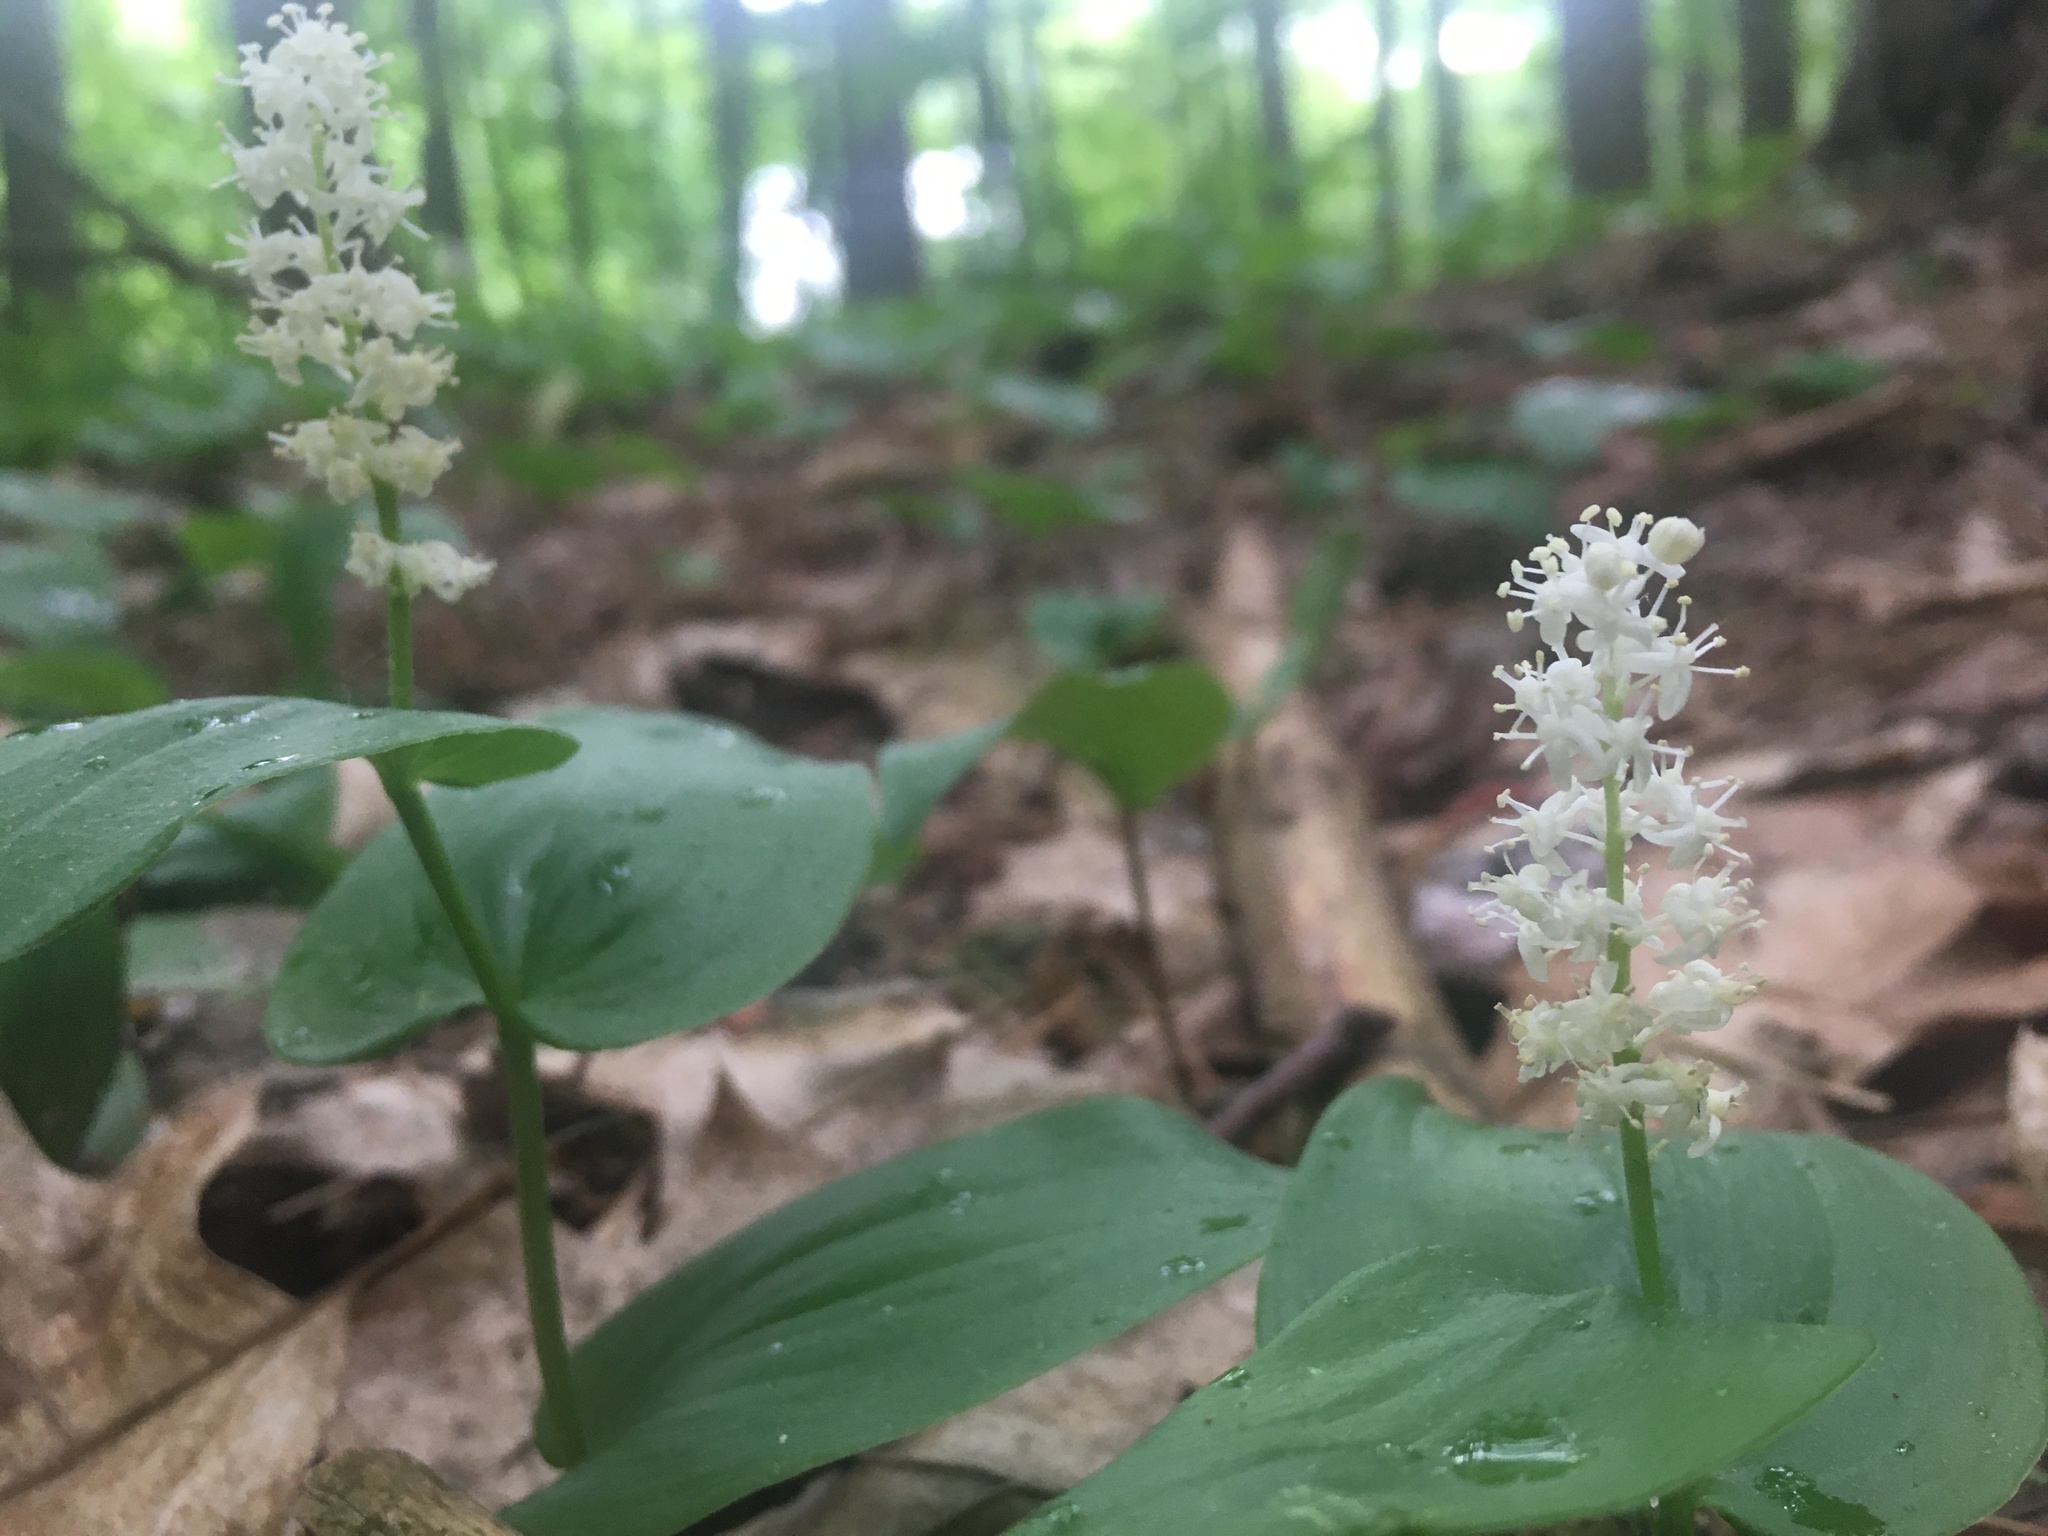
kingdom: Plantae
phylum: Tracheophyta
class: Liliopsida
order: Asparagales
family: Asparagaceae
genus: Maianthemum
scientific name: Maianthemum canadense
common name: False lily-of-the-valley
